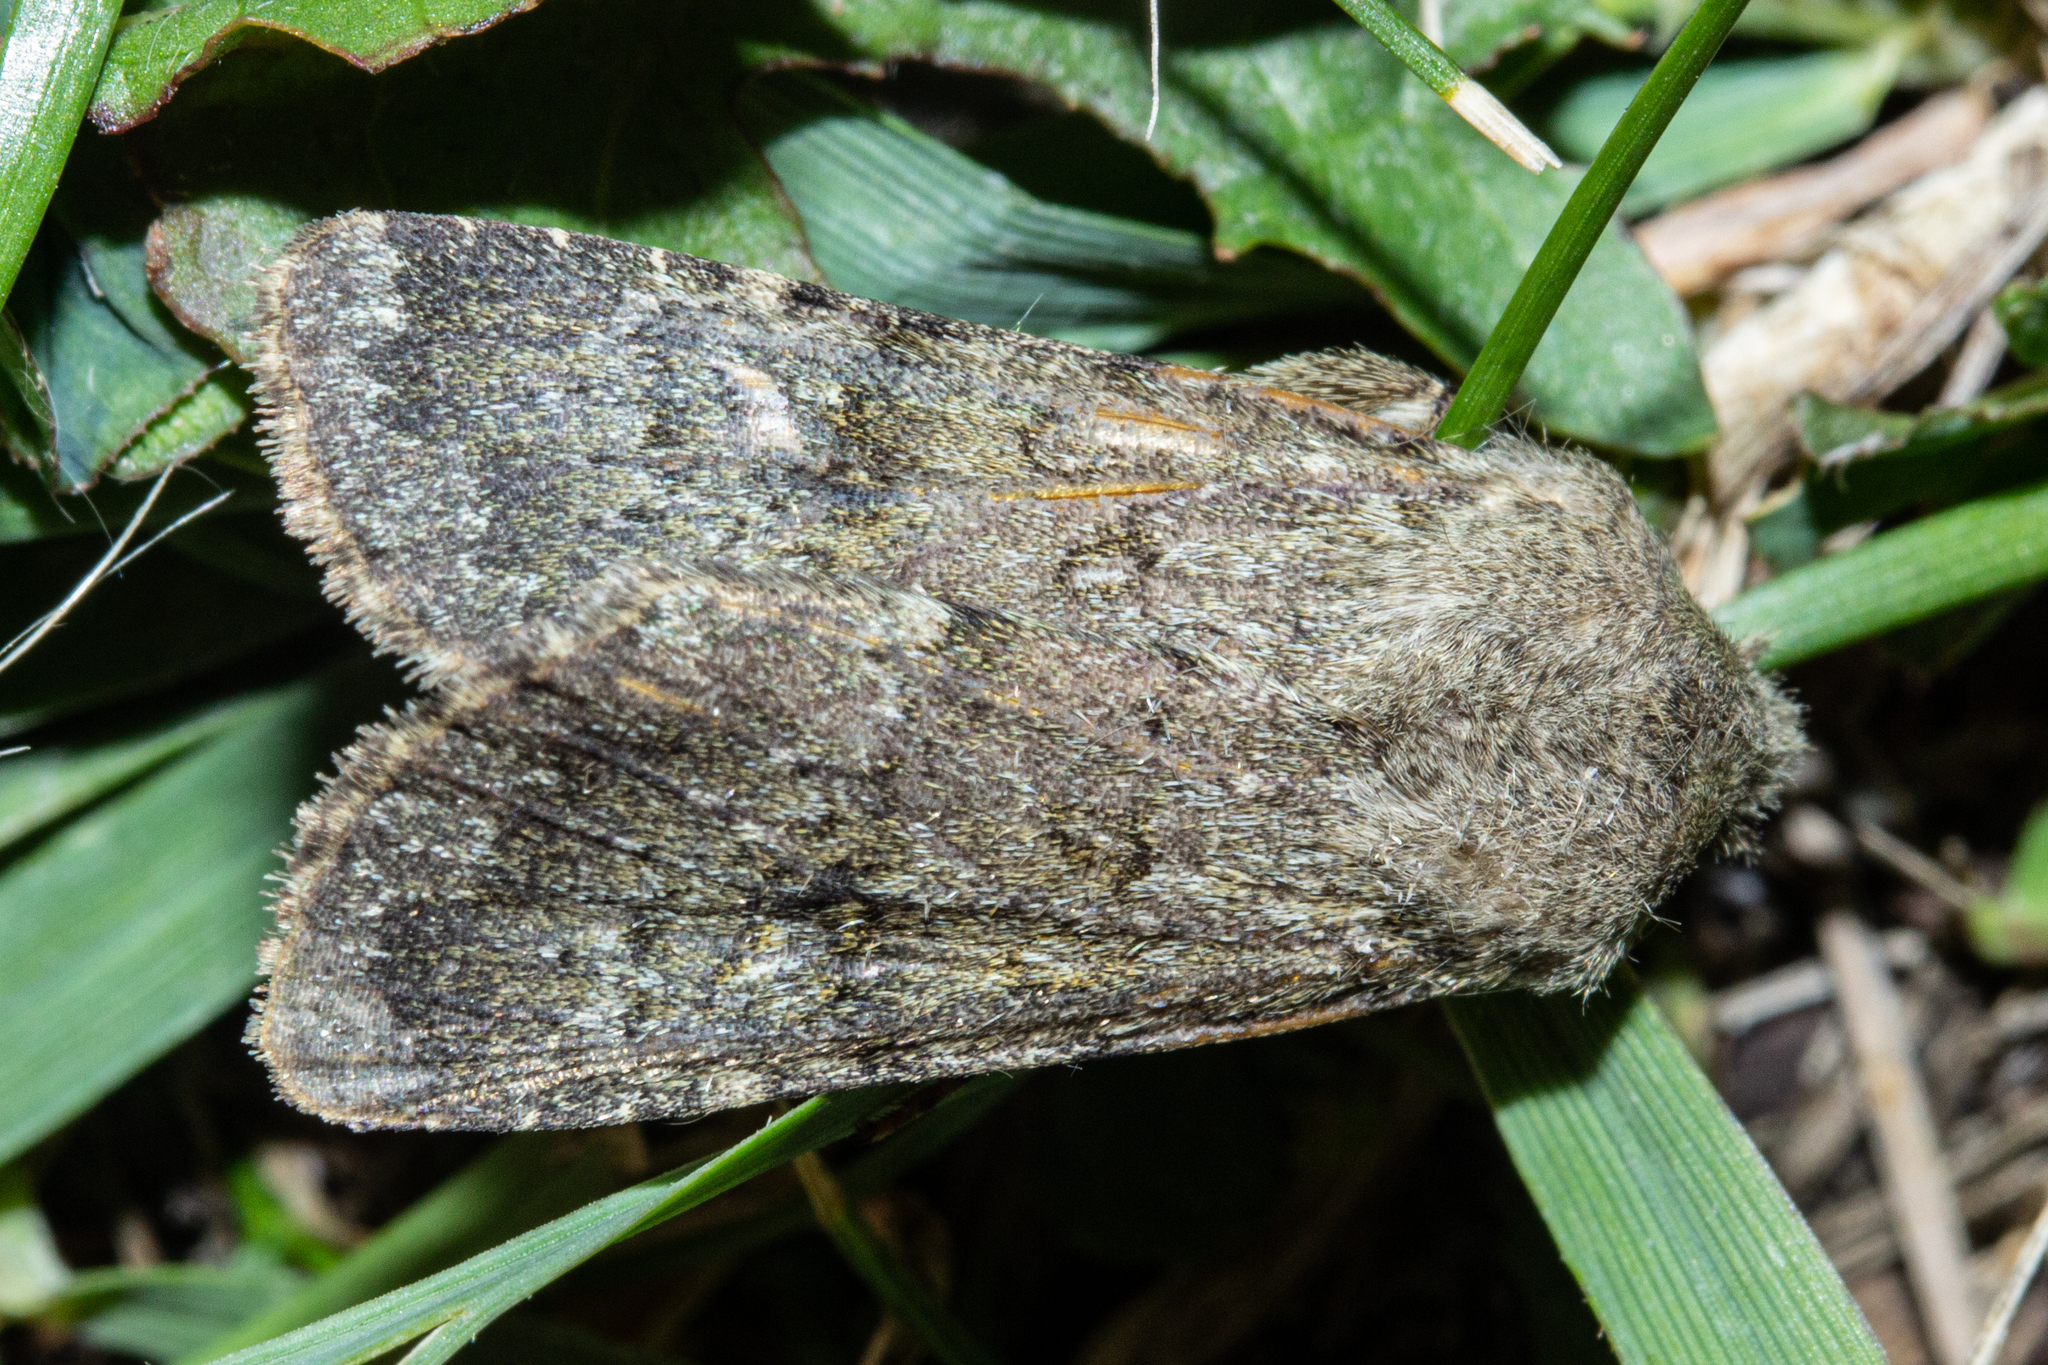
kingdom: Animalia
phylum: Arthropoda
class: Insecta
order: Lepidoptera
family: Noctuidae
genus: Ichneutica
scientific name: Ichneutica moderata
